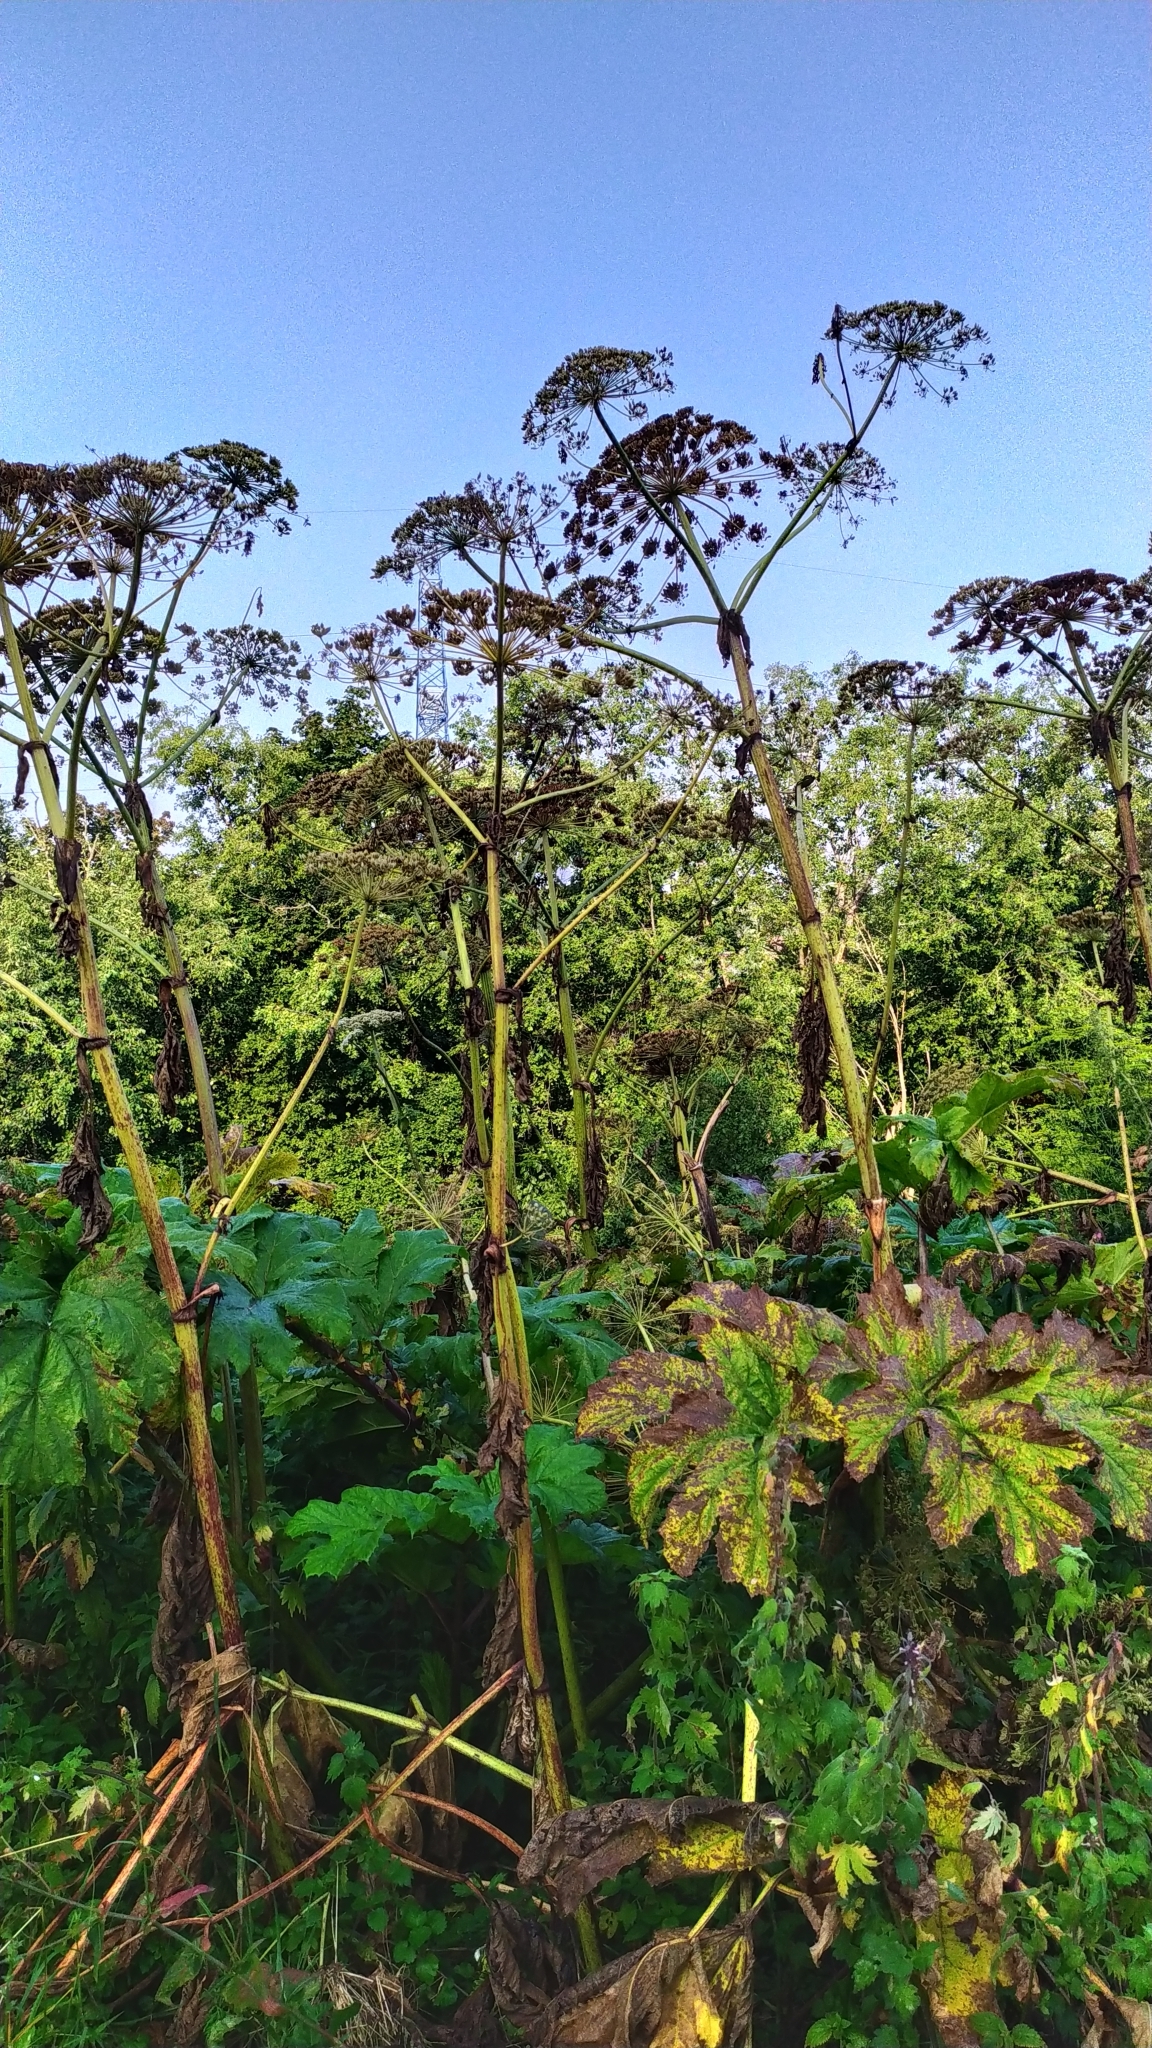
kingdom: Plantae
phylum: Tracheophyta
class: Magnoliopsida
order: Apiales
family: Apiaceae
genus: Heracleum
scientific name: Heracleum sosnowskyi
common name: Sosnowsky's hogweed
